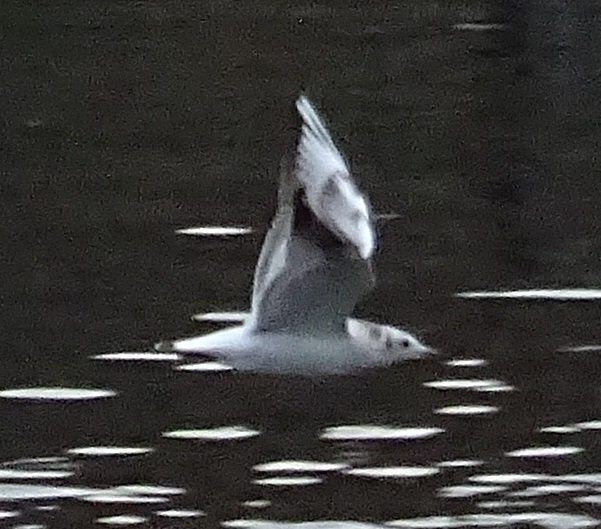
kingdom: Animalia
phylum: Chordata
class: Aves
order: Charadriiformes
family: Laridae
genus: Chroicocephalus
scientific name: Chroicocephalus ridibundus
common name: Black-headed gull
